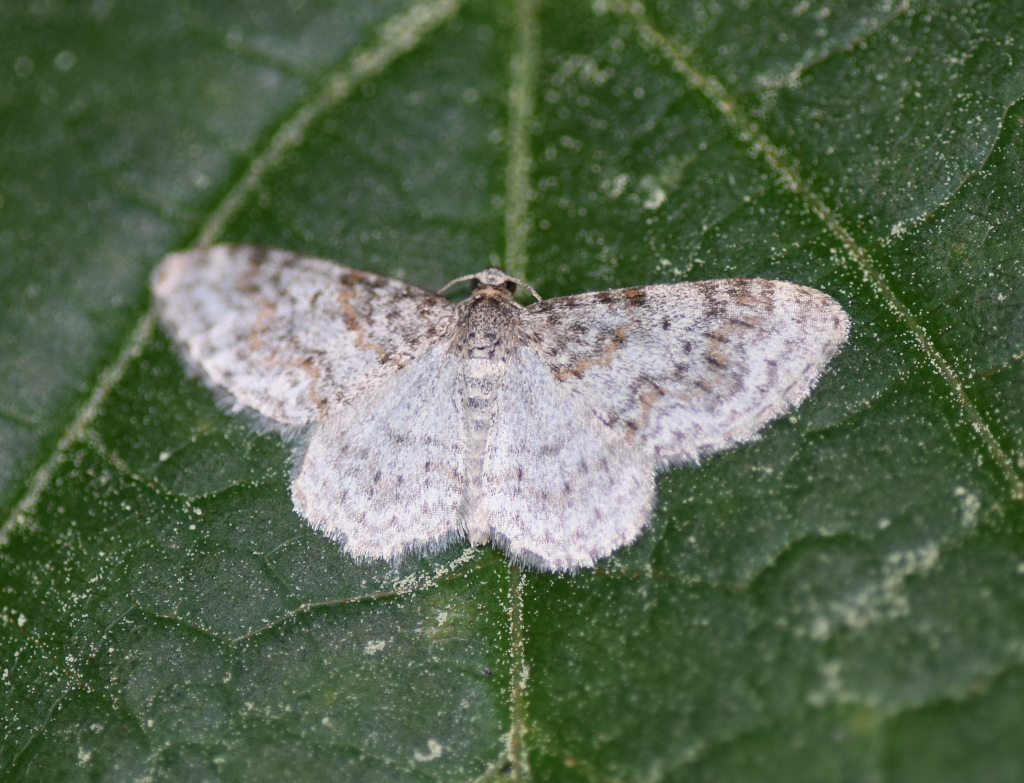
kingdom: Animalia
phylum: Arthropoda
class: Insecta
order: Lepidoptera
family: Geometridae
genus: Hydrelia
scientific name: Hydrelia inornata
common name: Unadorned carpet moth
